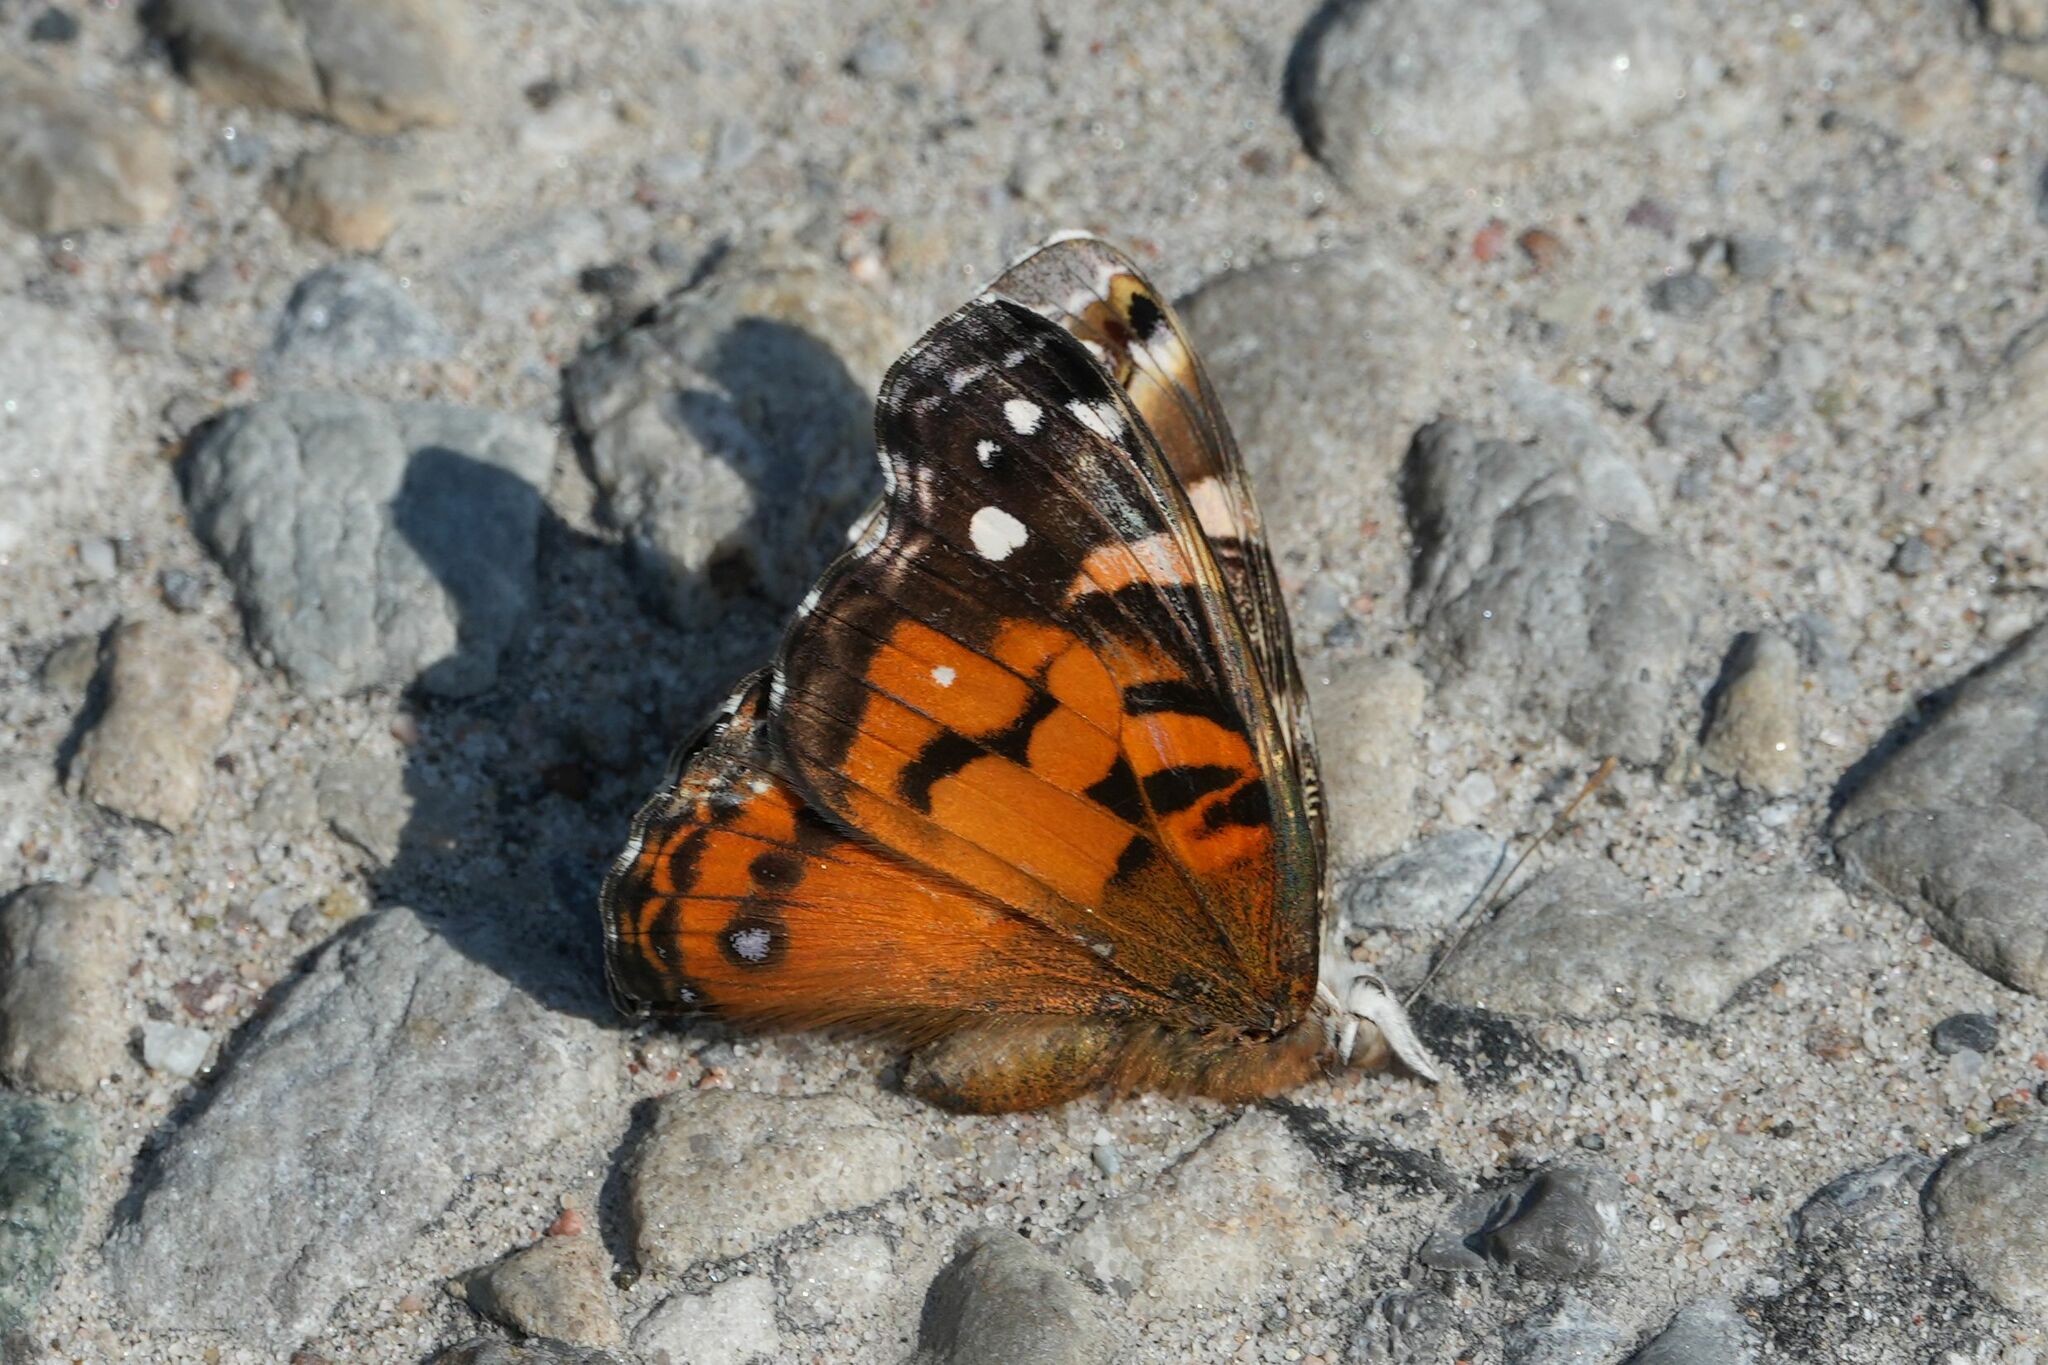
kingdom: Animalia
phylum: Arthropoda
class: Insecta
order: Lepidoptera
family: Nymphalidae
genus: Vanessa
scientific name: Vanessa virginiensis
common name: American lady
